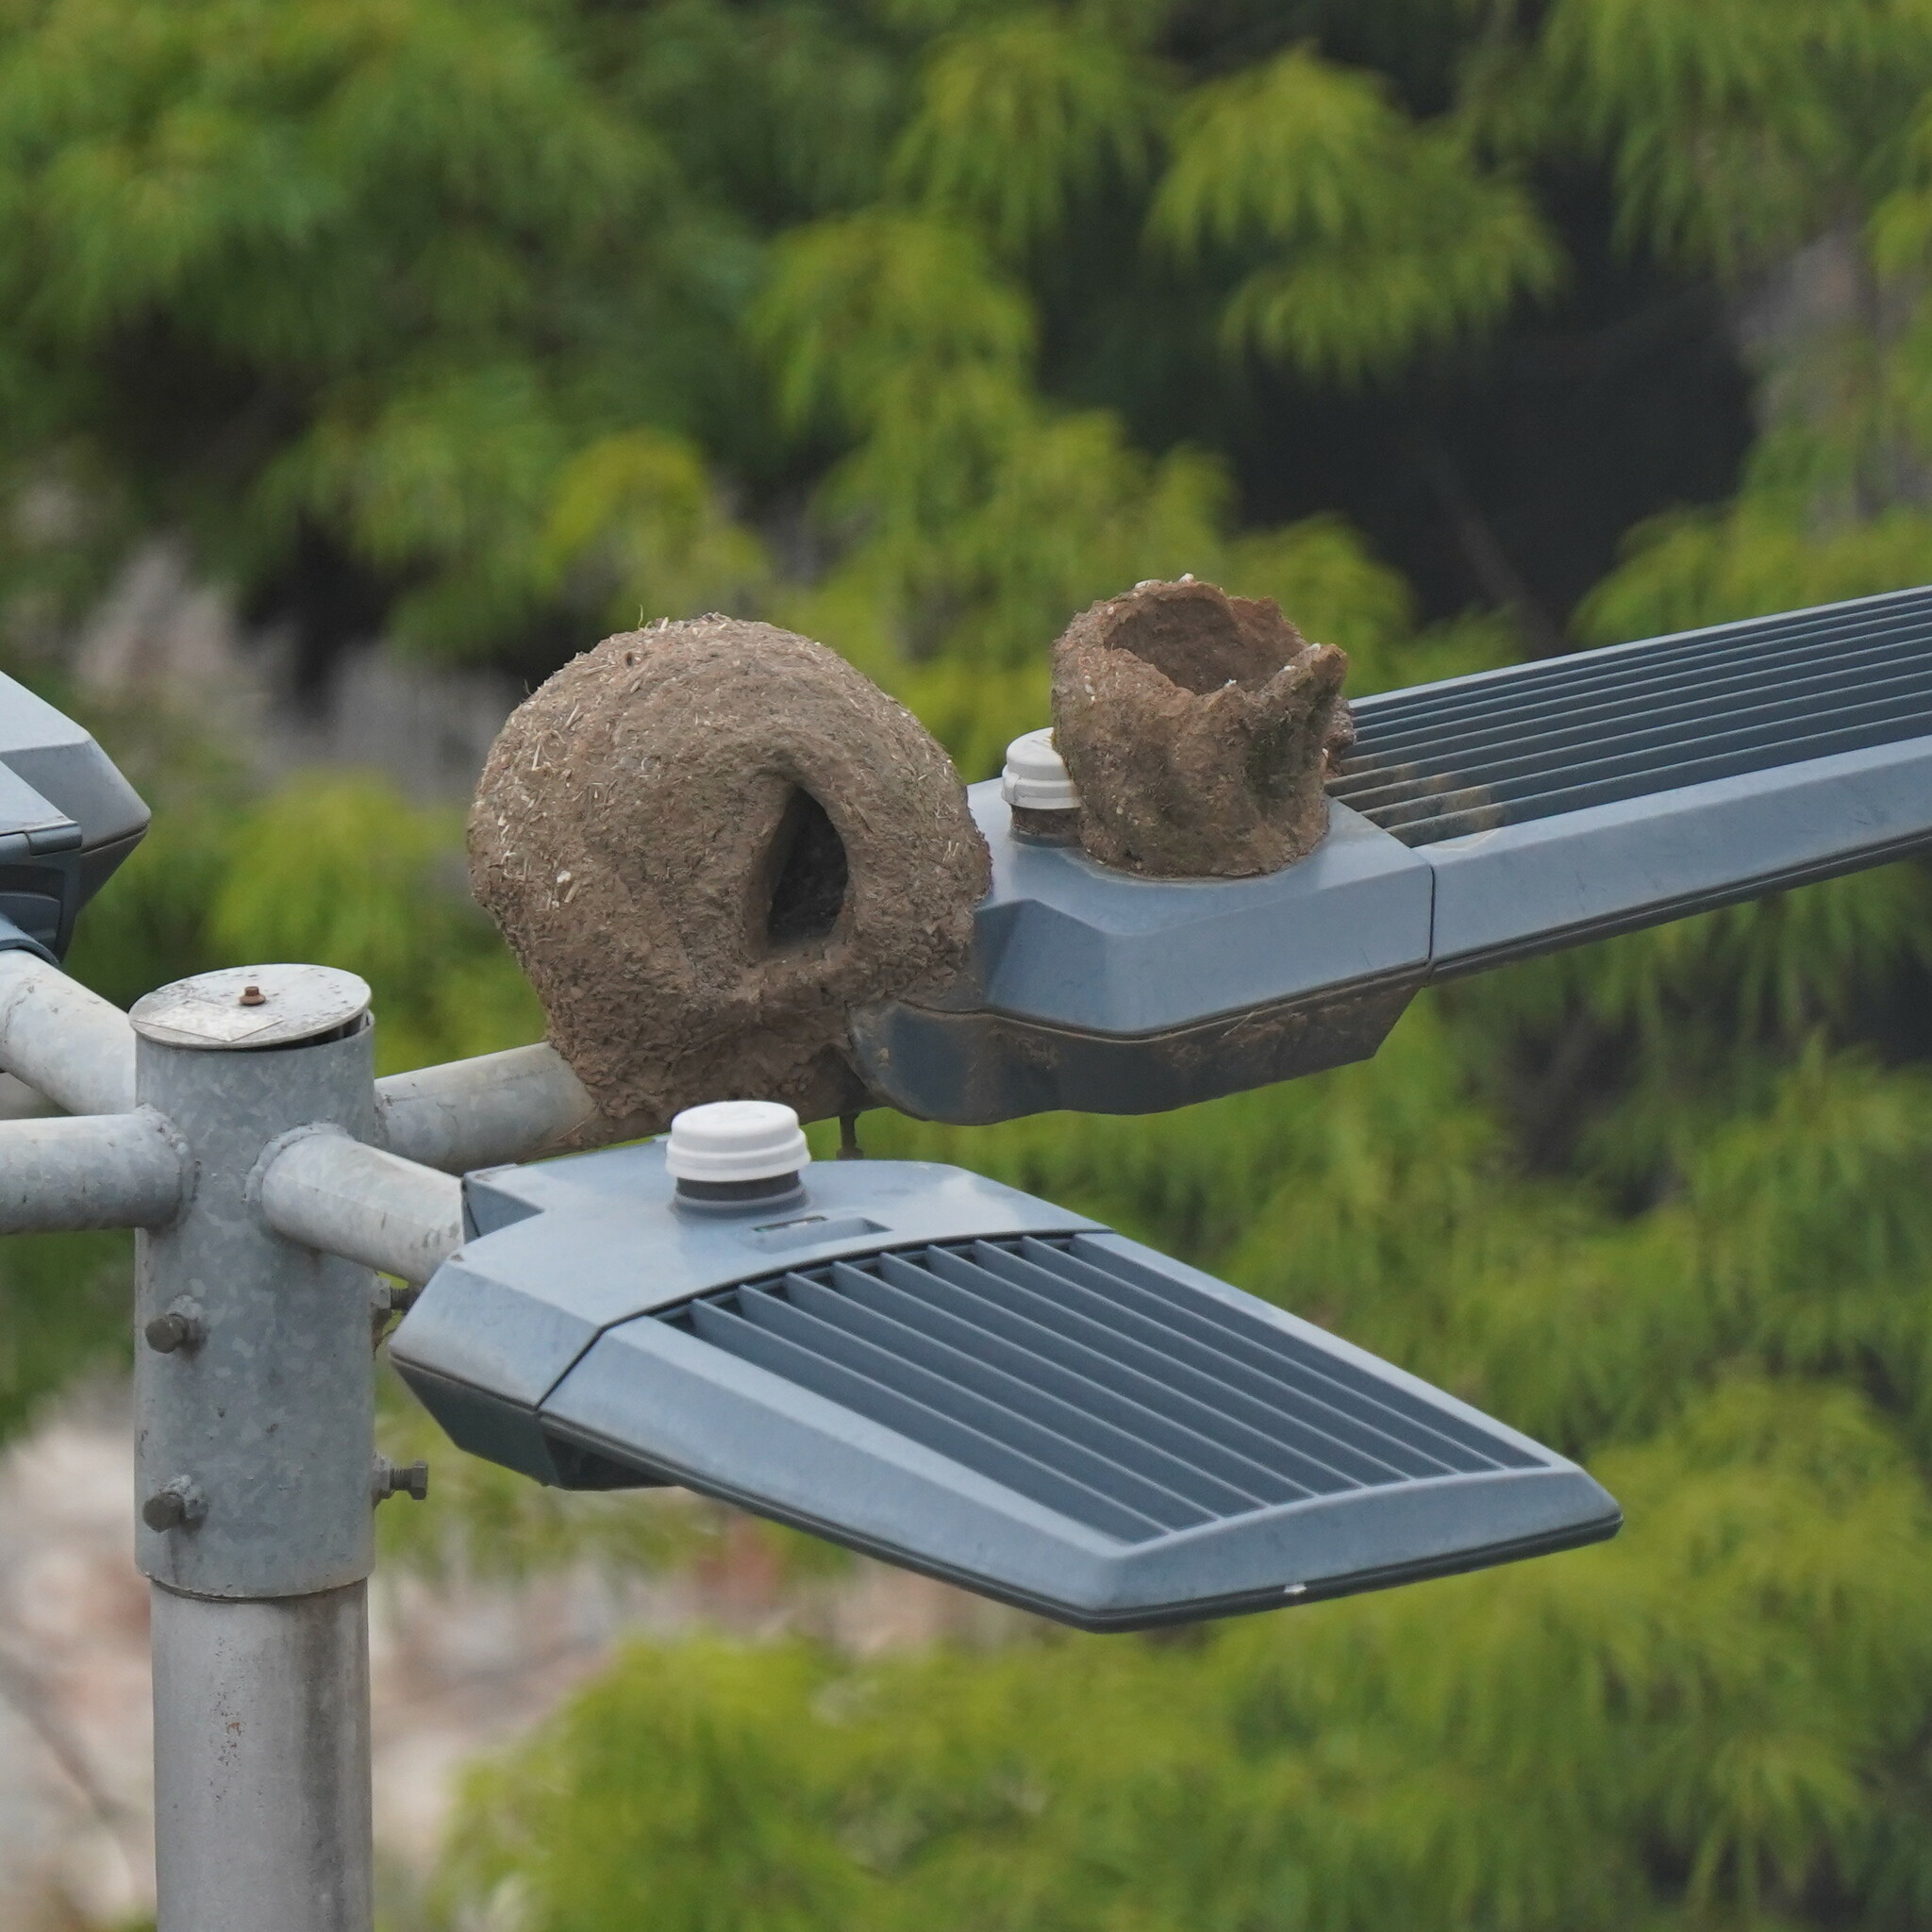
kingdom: Animalia
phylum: Chordata
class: Aves
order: Passeriformes
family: Furnariidae
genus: Furnarius
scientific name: Furnarius rufus
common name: Rufous hornero
